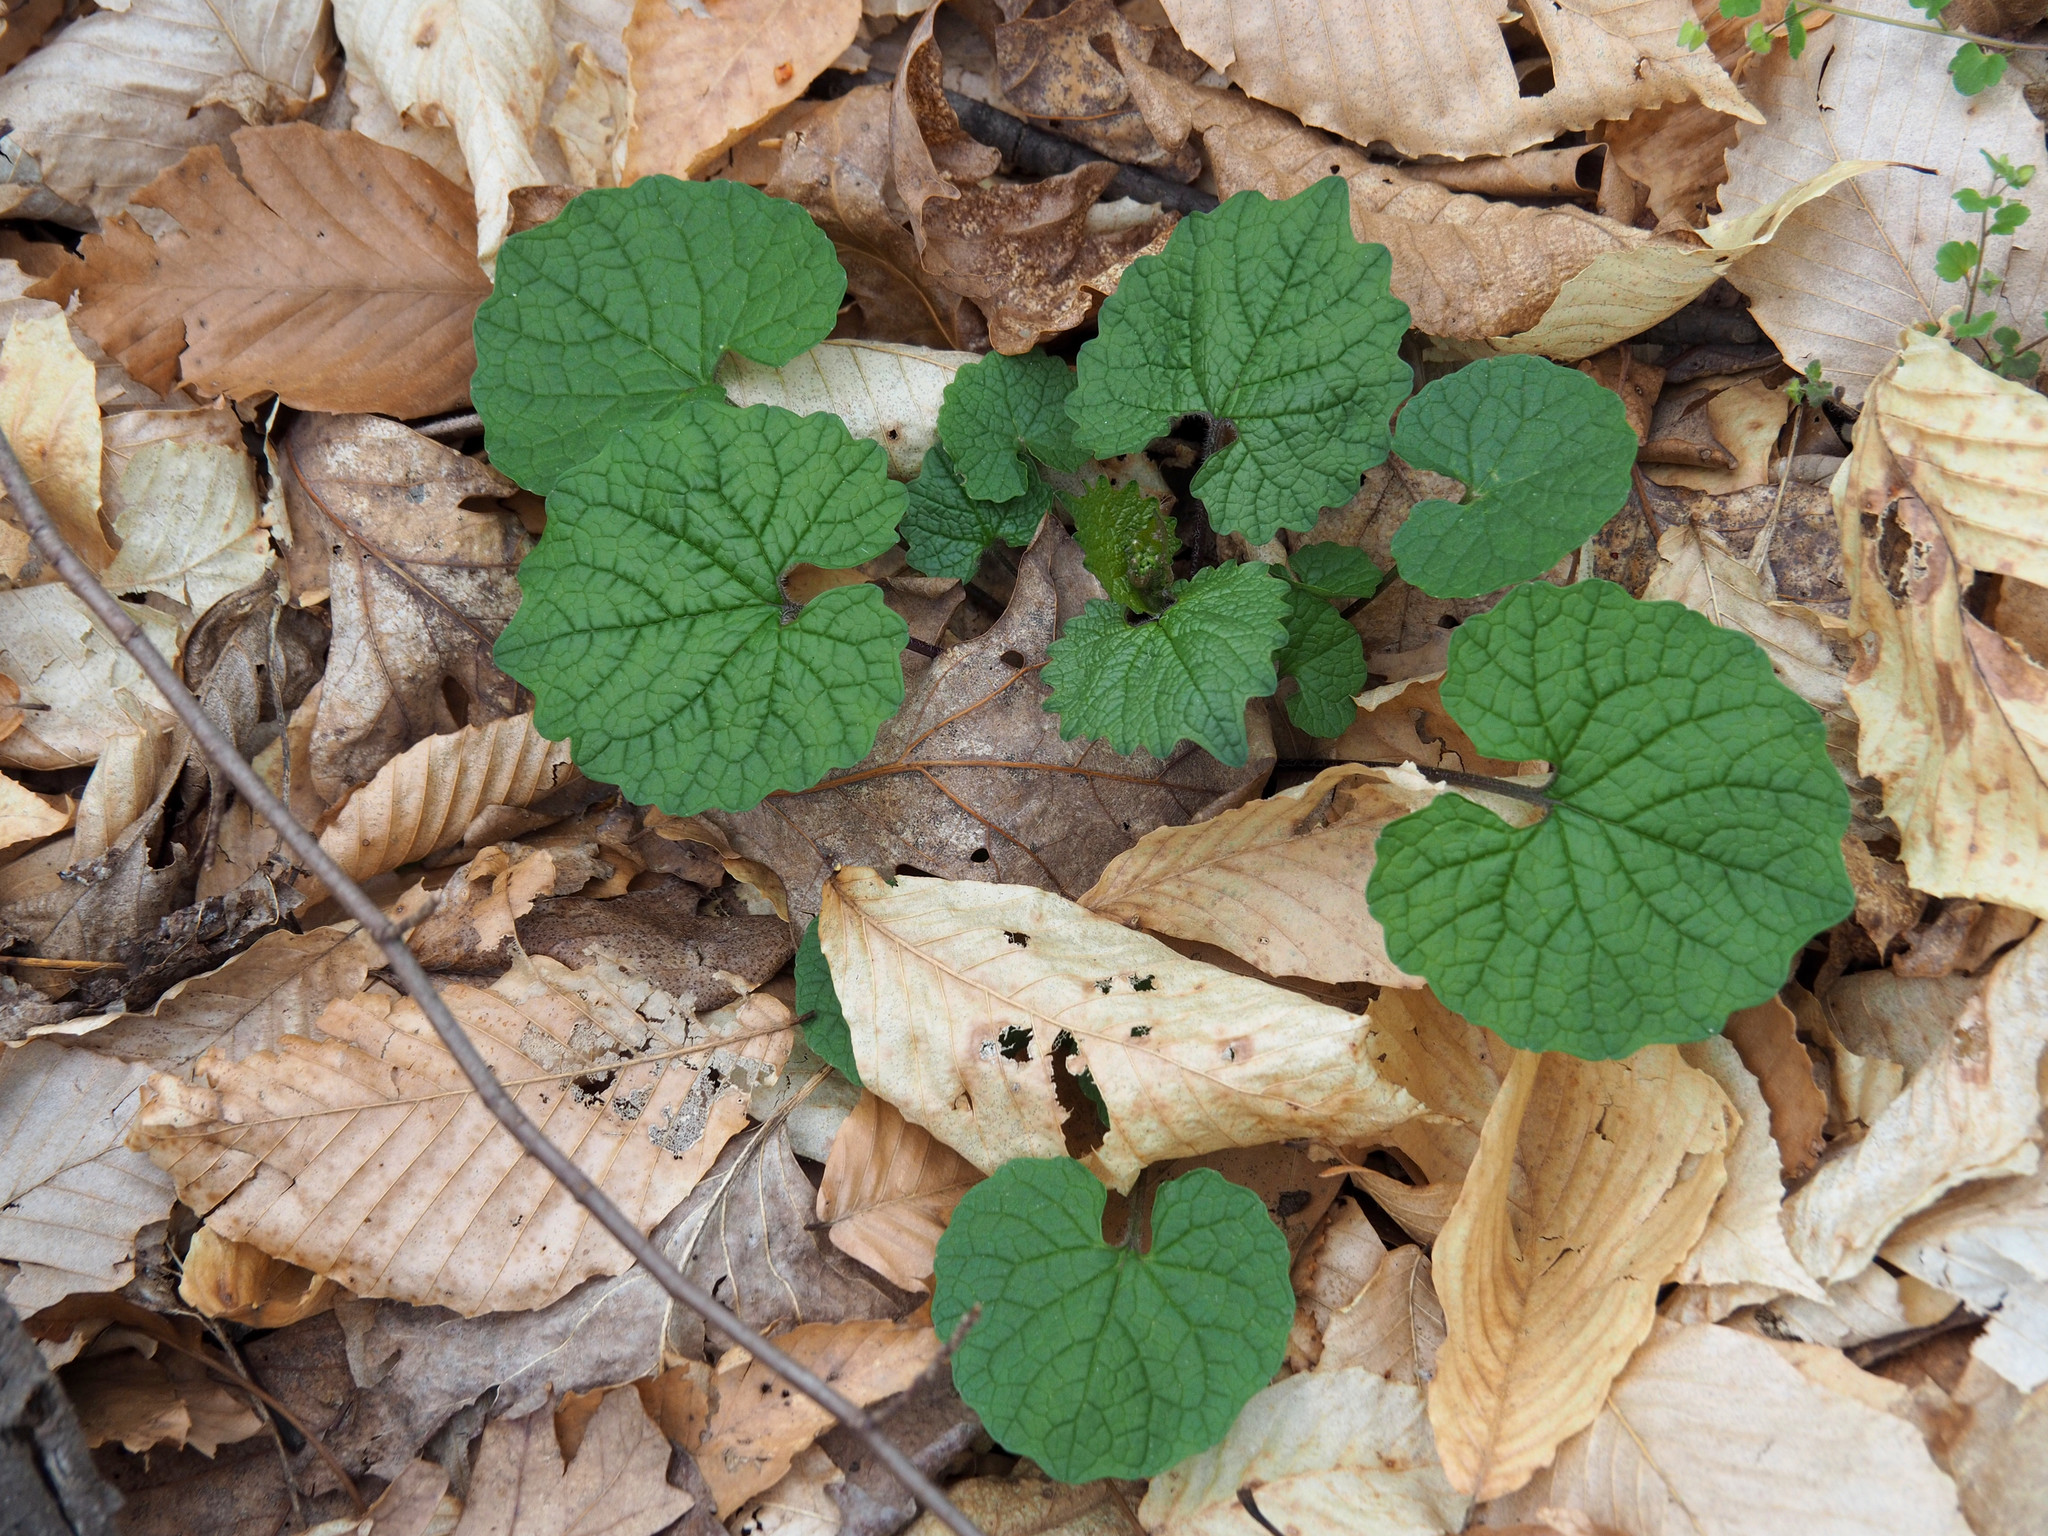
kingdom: Plantae
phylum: Tracheophyta
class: Magnoliopsida
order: Brassicales
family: Brassicaceae
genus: Alliaria
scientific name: Alliaria petiolata
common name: Garlic mustard
